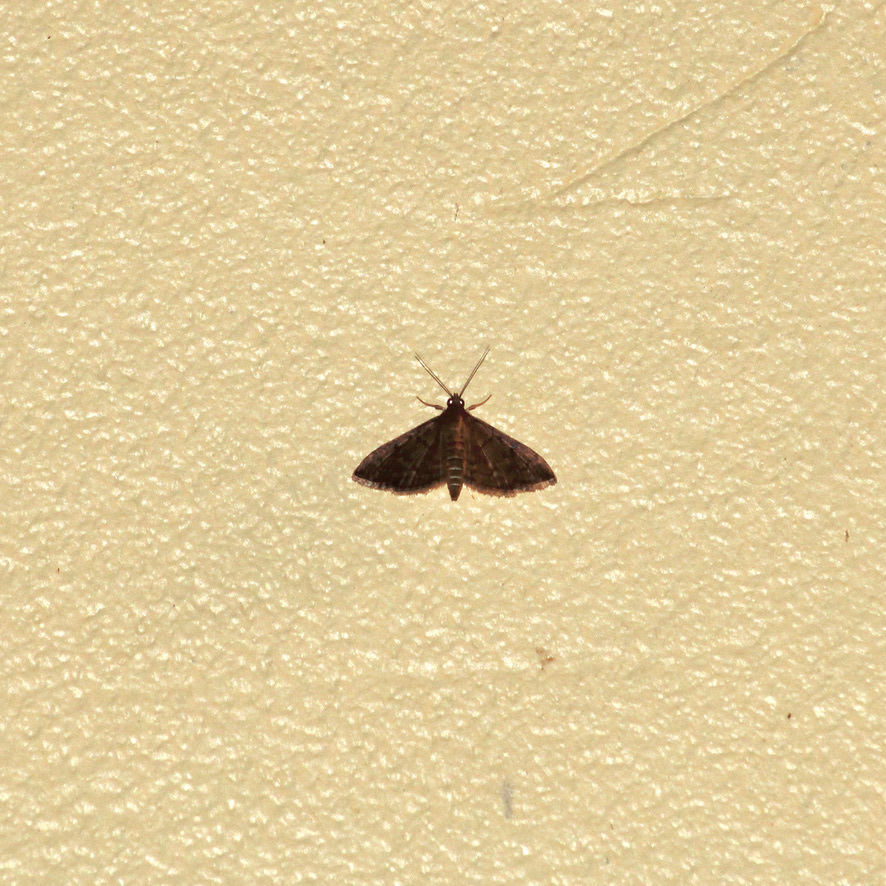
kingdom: Animalia
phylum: Arthropoda
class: Insecta
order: Lepidoptera
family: Crambidae
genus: Herpetogramma
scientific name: Herpetogramma phaeopteralis
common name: Dusky herpetogramma moth
